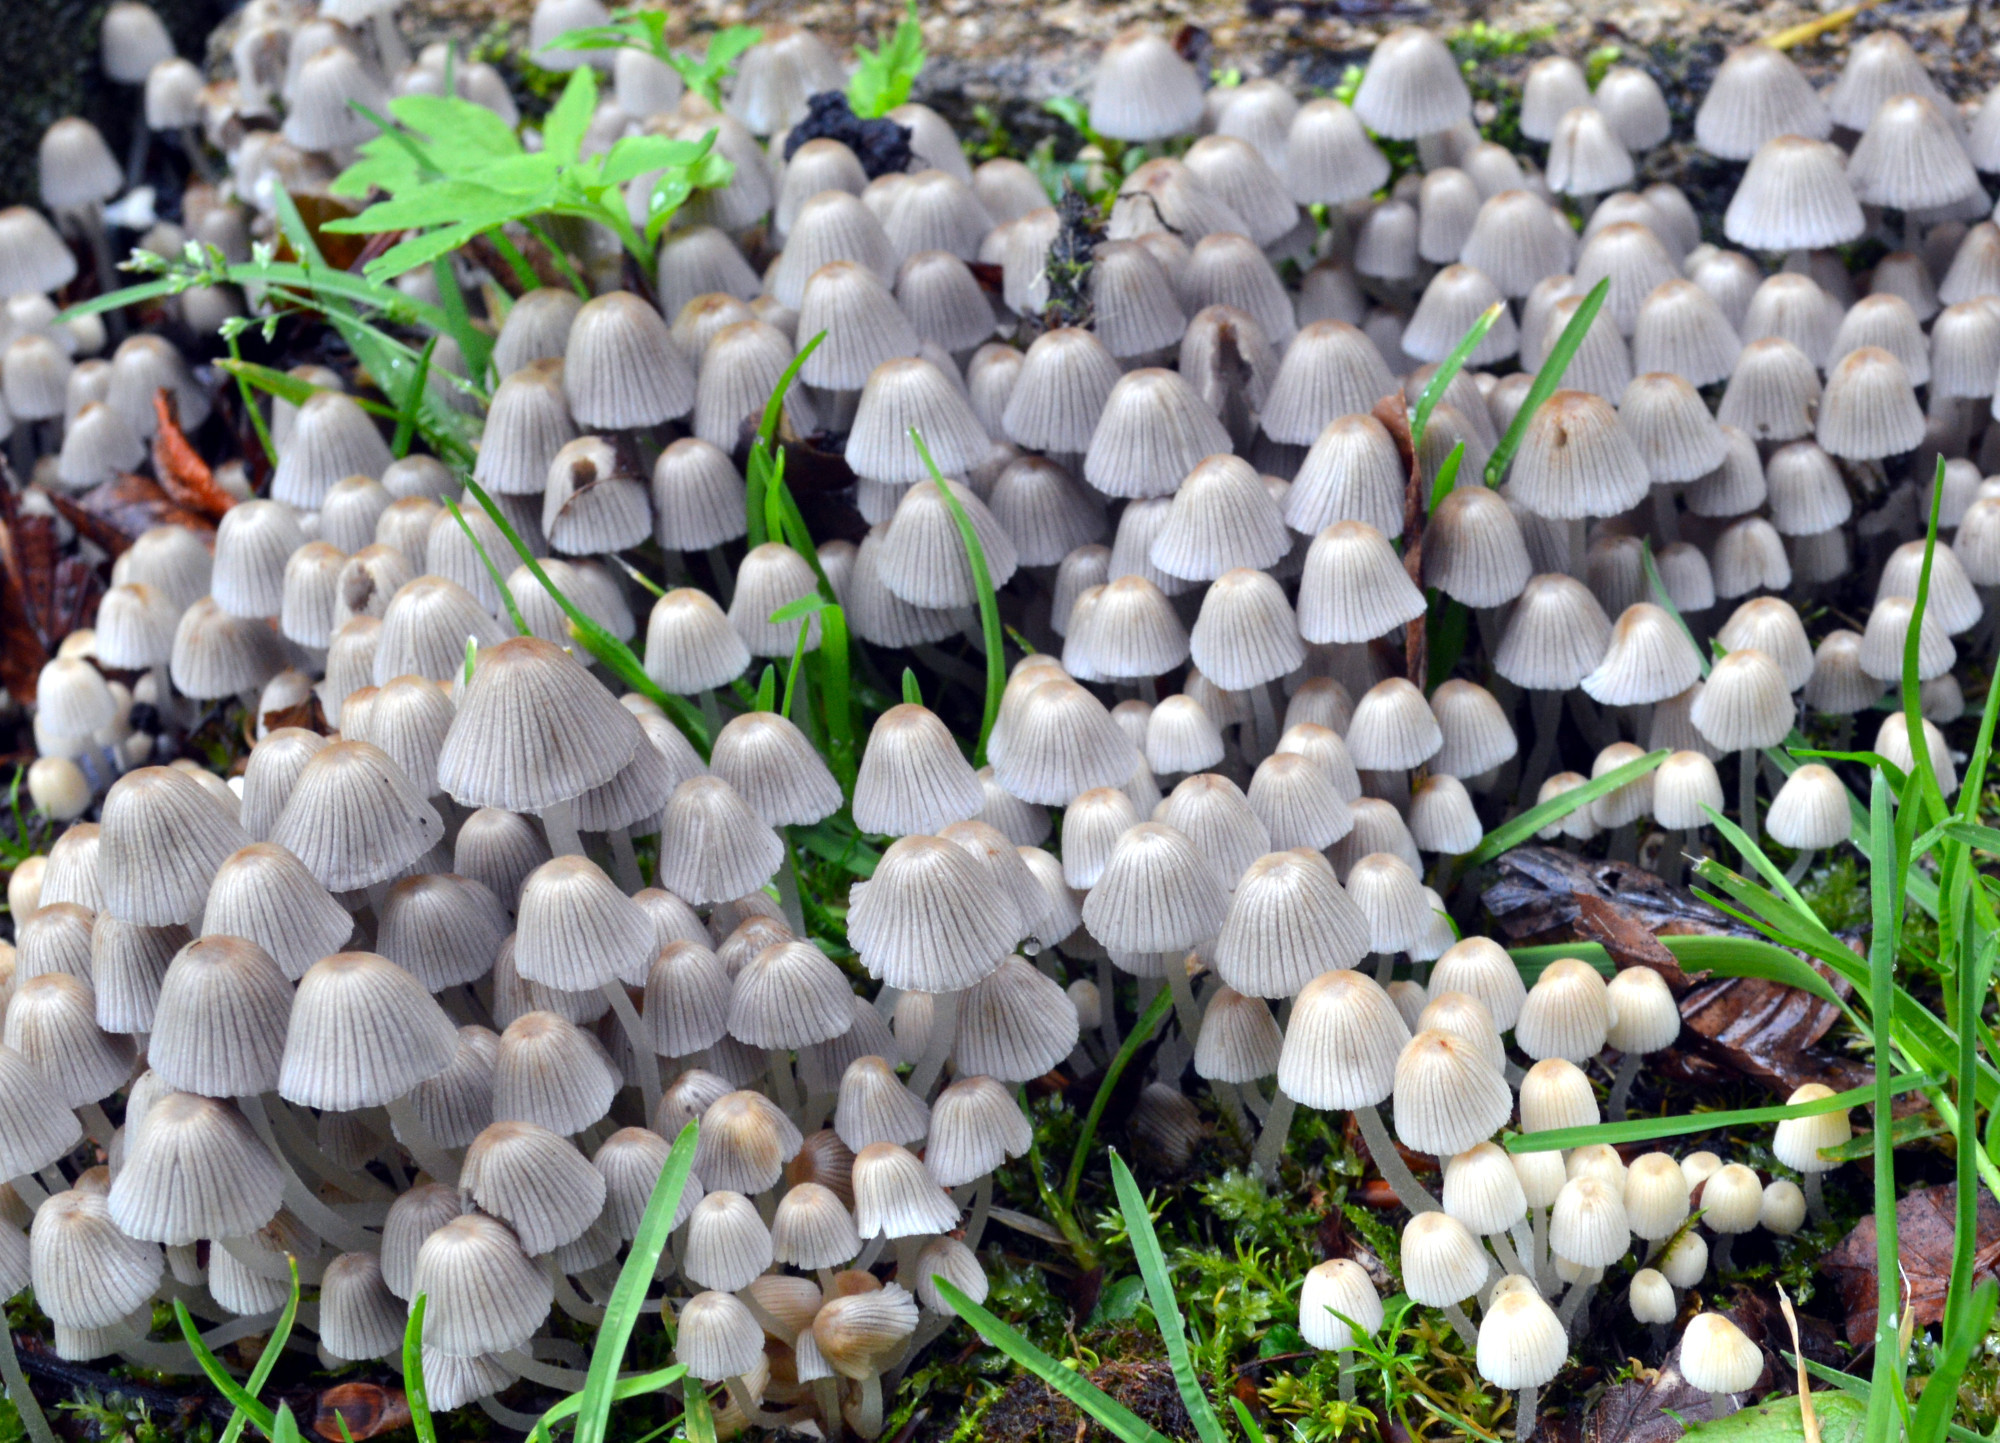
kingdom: Fungi
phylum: Basidiomycota
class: Agaricomycetes
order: Agaricales
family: Psathyrellaceae
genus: Coprinellus
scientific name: Coprinellus disseminatus
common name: Fairies' bonnets
